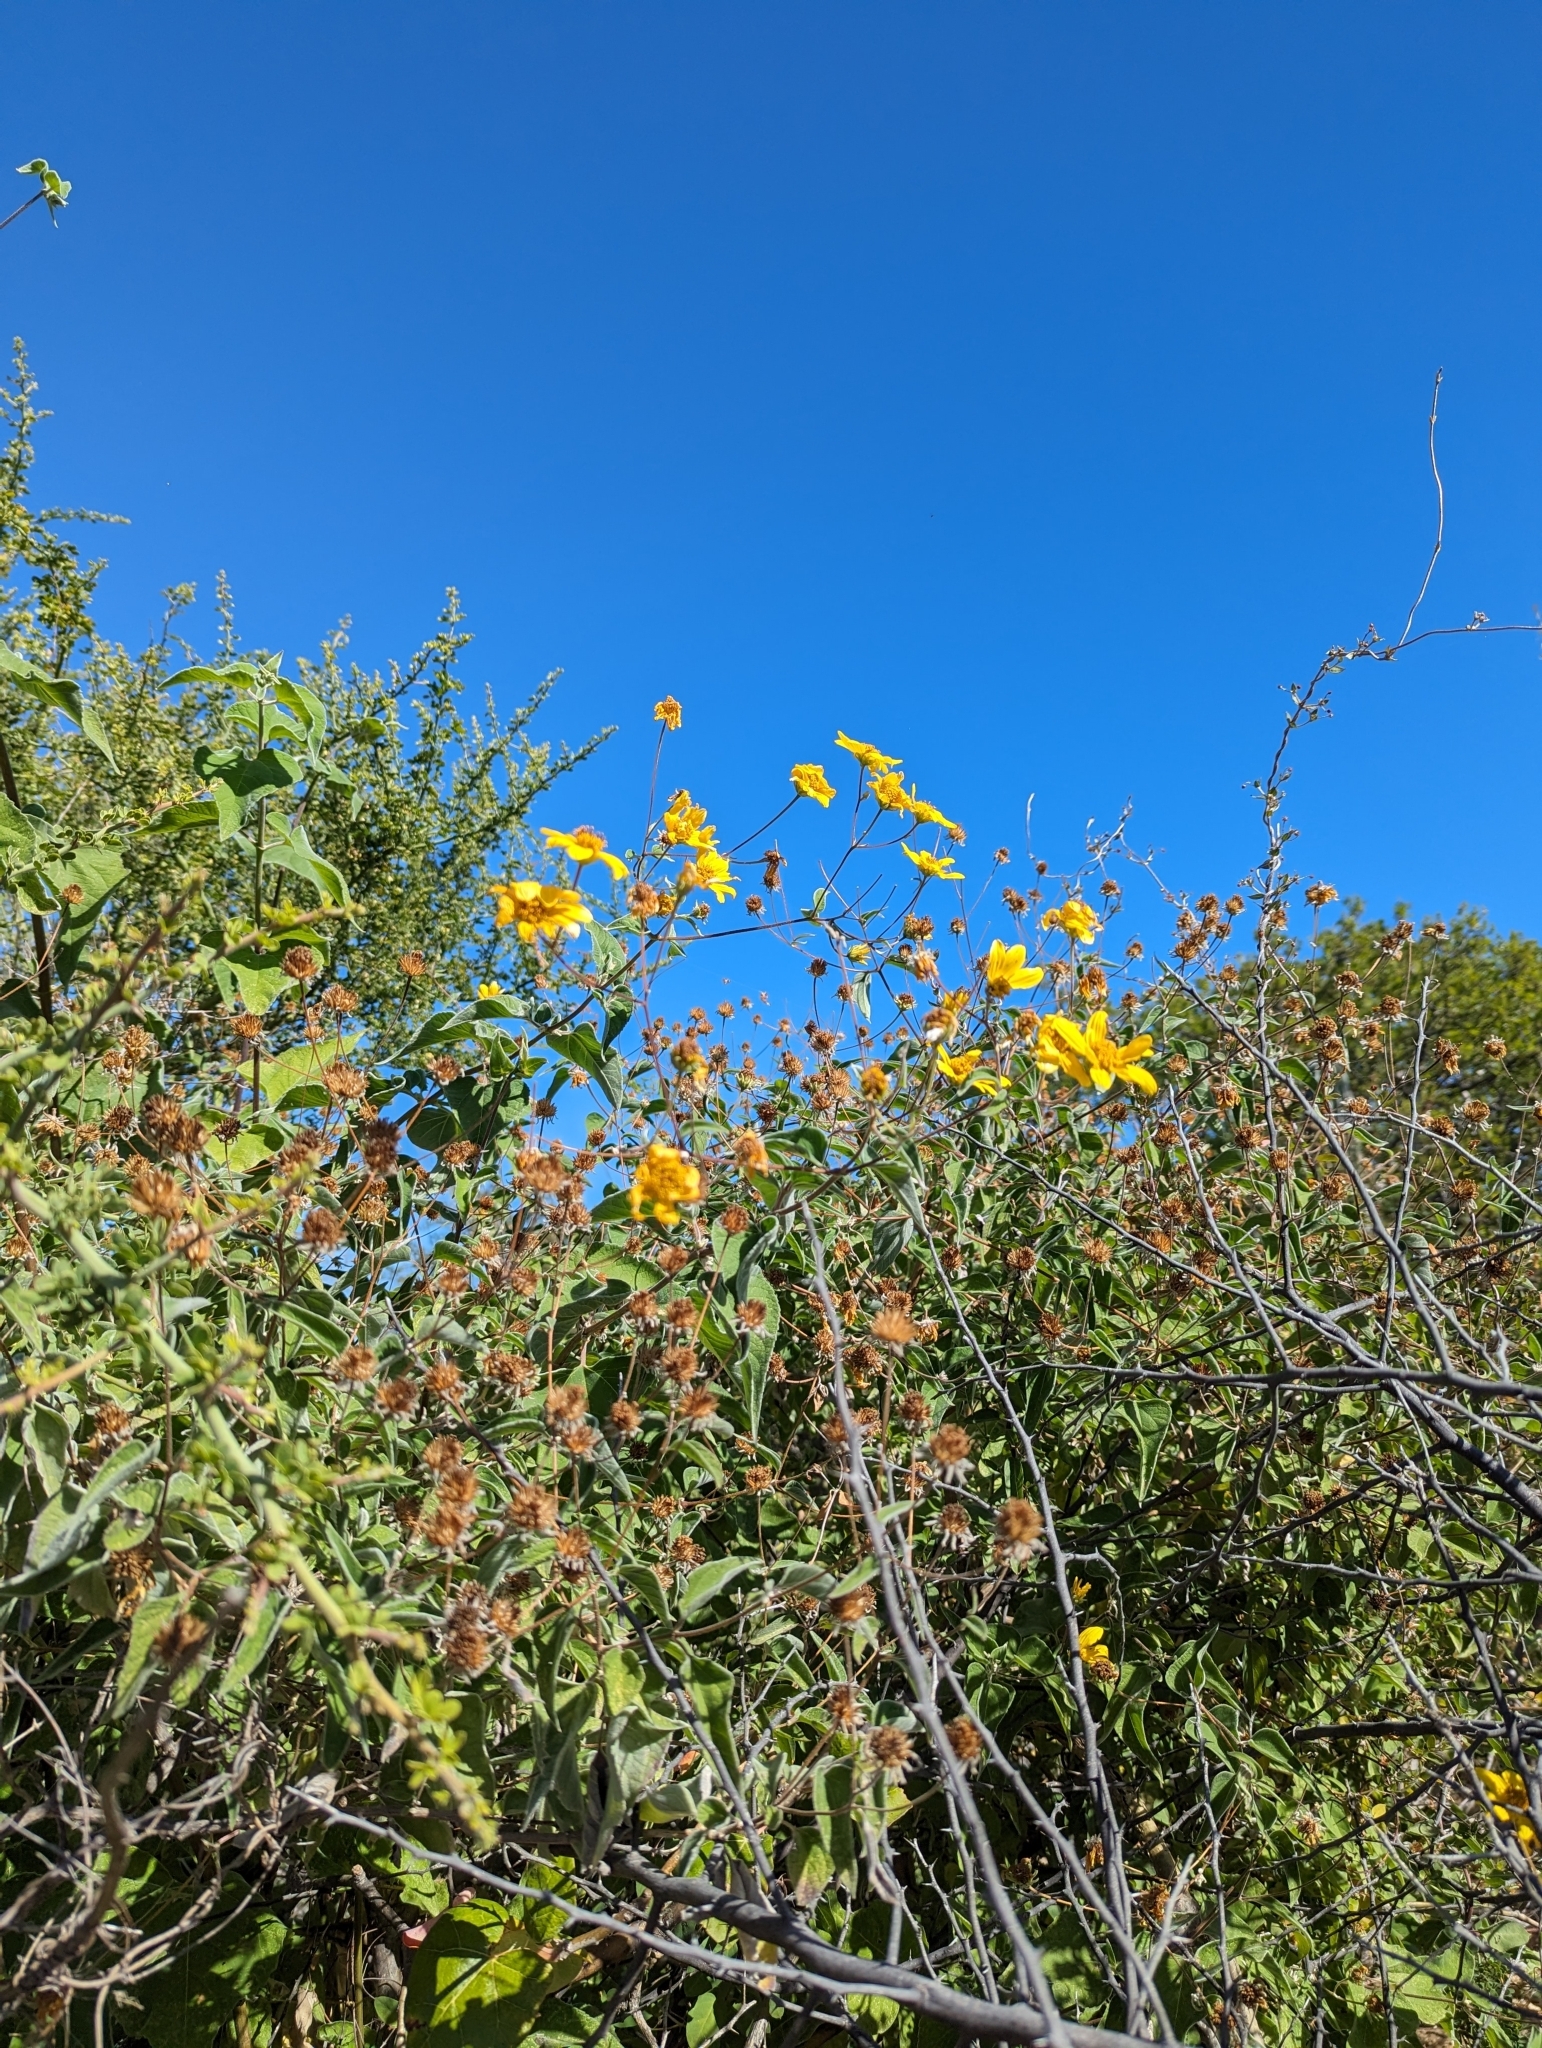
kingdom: Plantae
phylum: Tracheophyta
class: Magnoliopsida
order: Asterales
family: Asteraceae
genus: Bahiopsis
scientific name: Bahiopsis tomentosa
